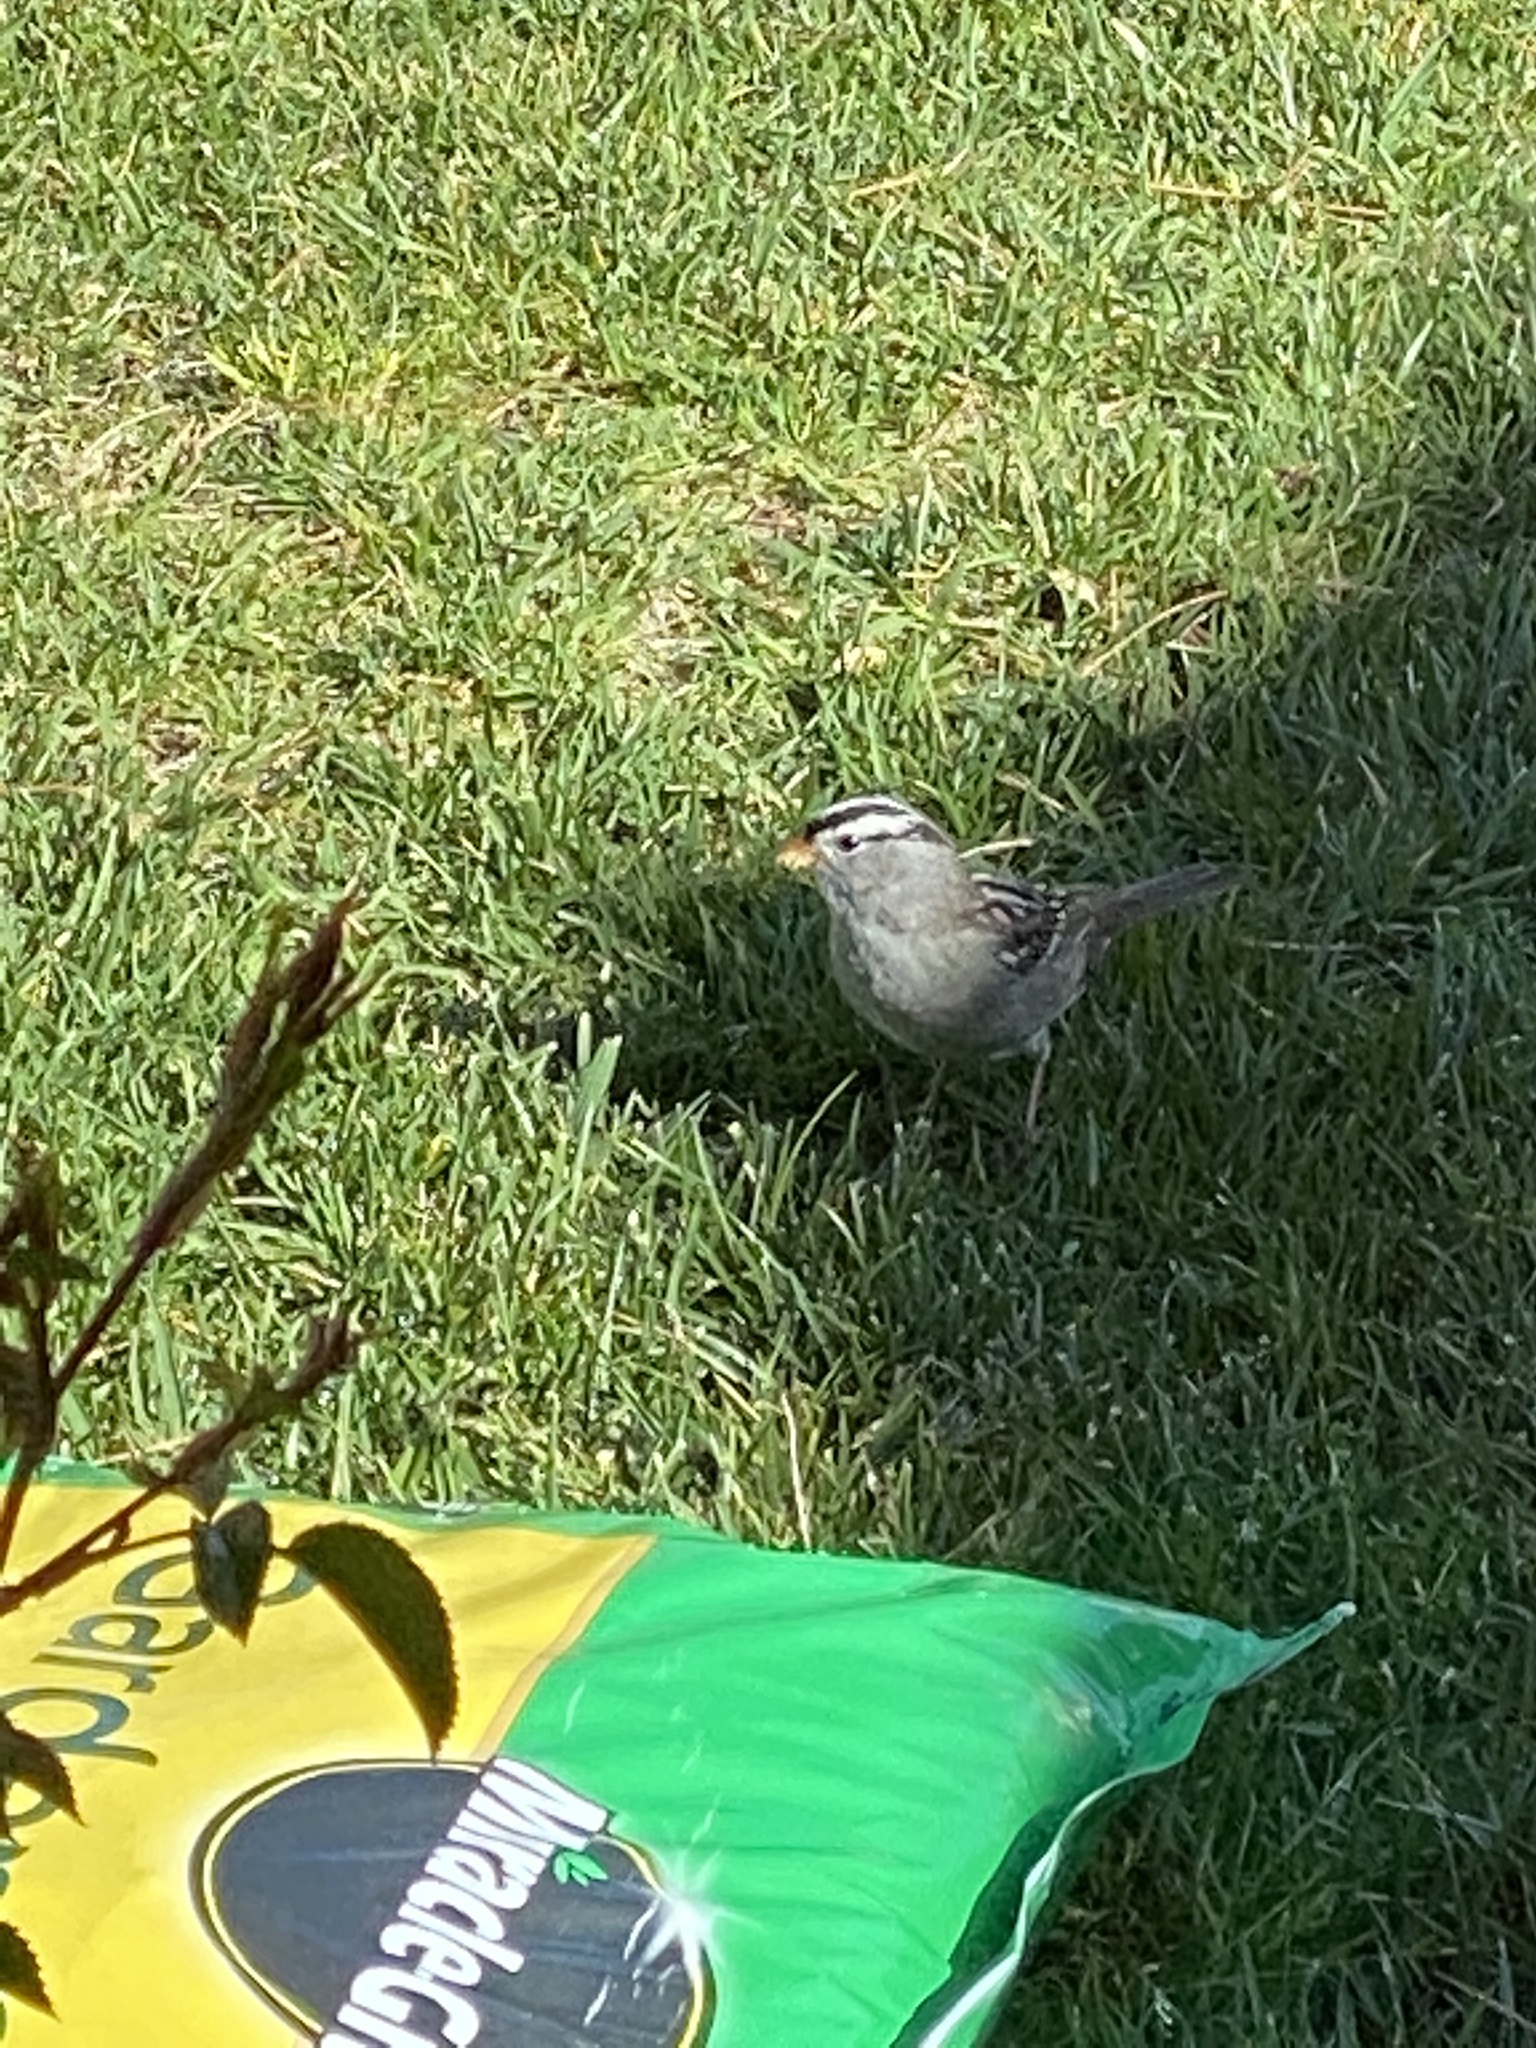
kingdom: Animalia
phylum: Chordata
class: Aves
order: Passeriformes
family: Passerellidae
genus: Zonotrichia
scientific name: Zonotrichia leucophrys
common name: White-crowned sparrow
